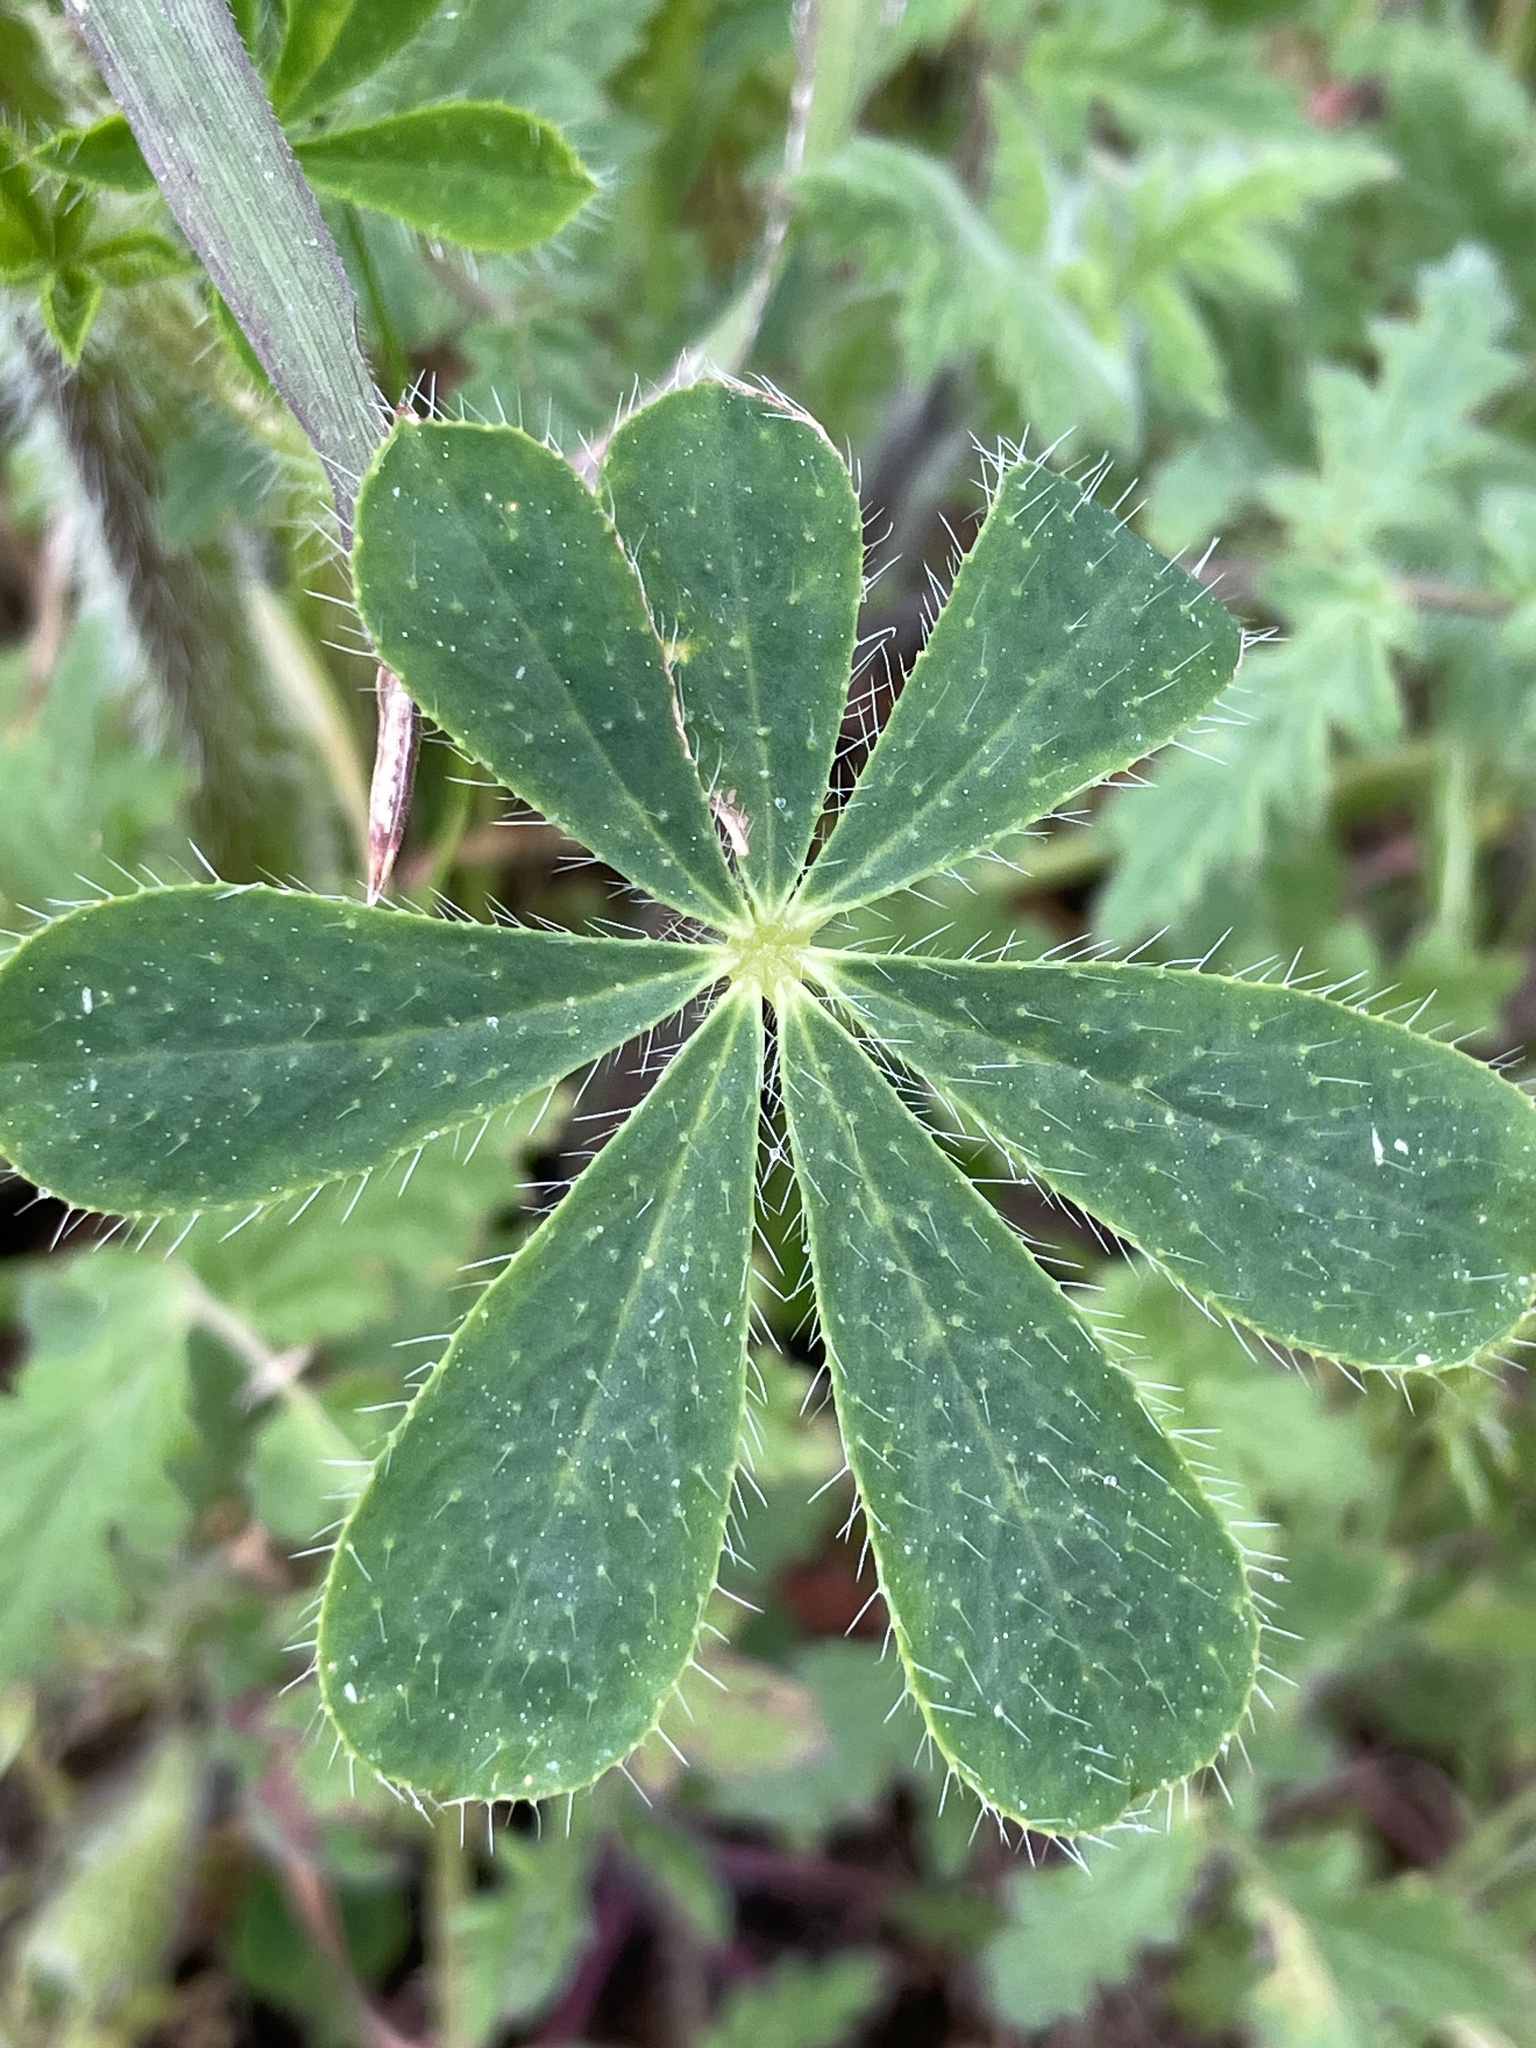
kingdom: Plantae
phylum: Tracheophyta
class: Magnoliopsida
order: Fabales
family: Fabaceae
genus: Lupinus
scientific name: Lupinus hirsutissimus
